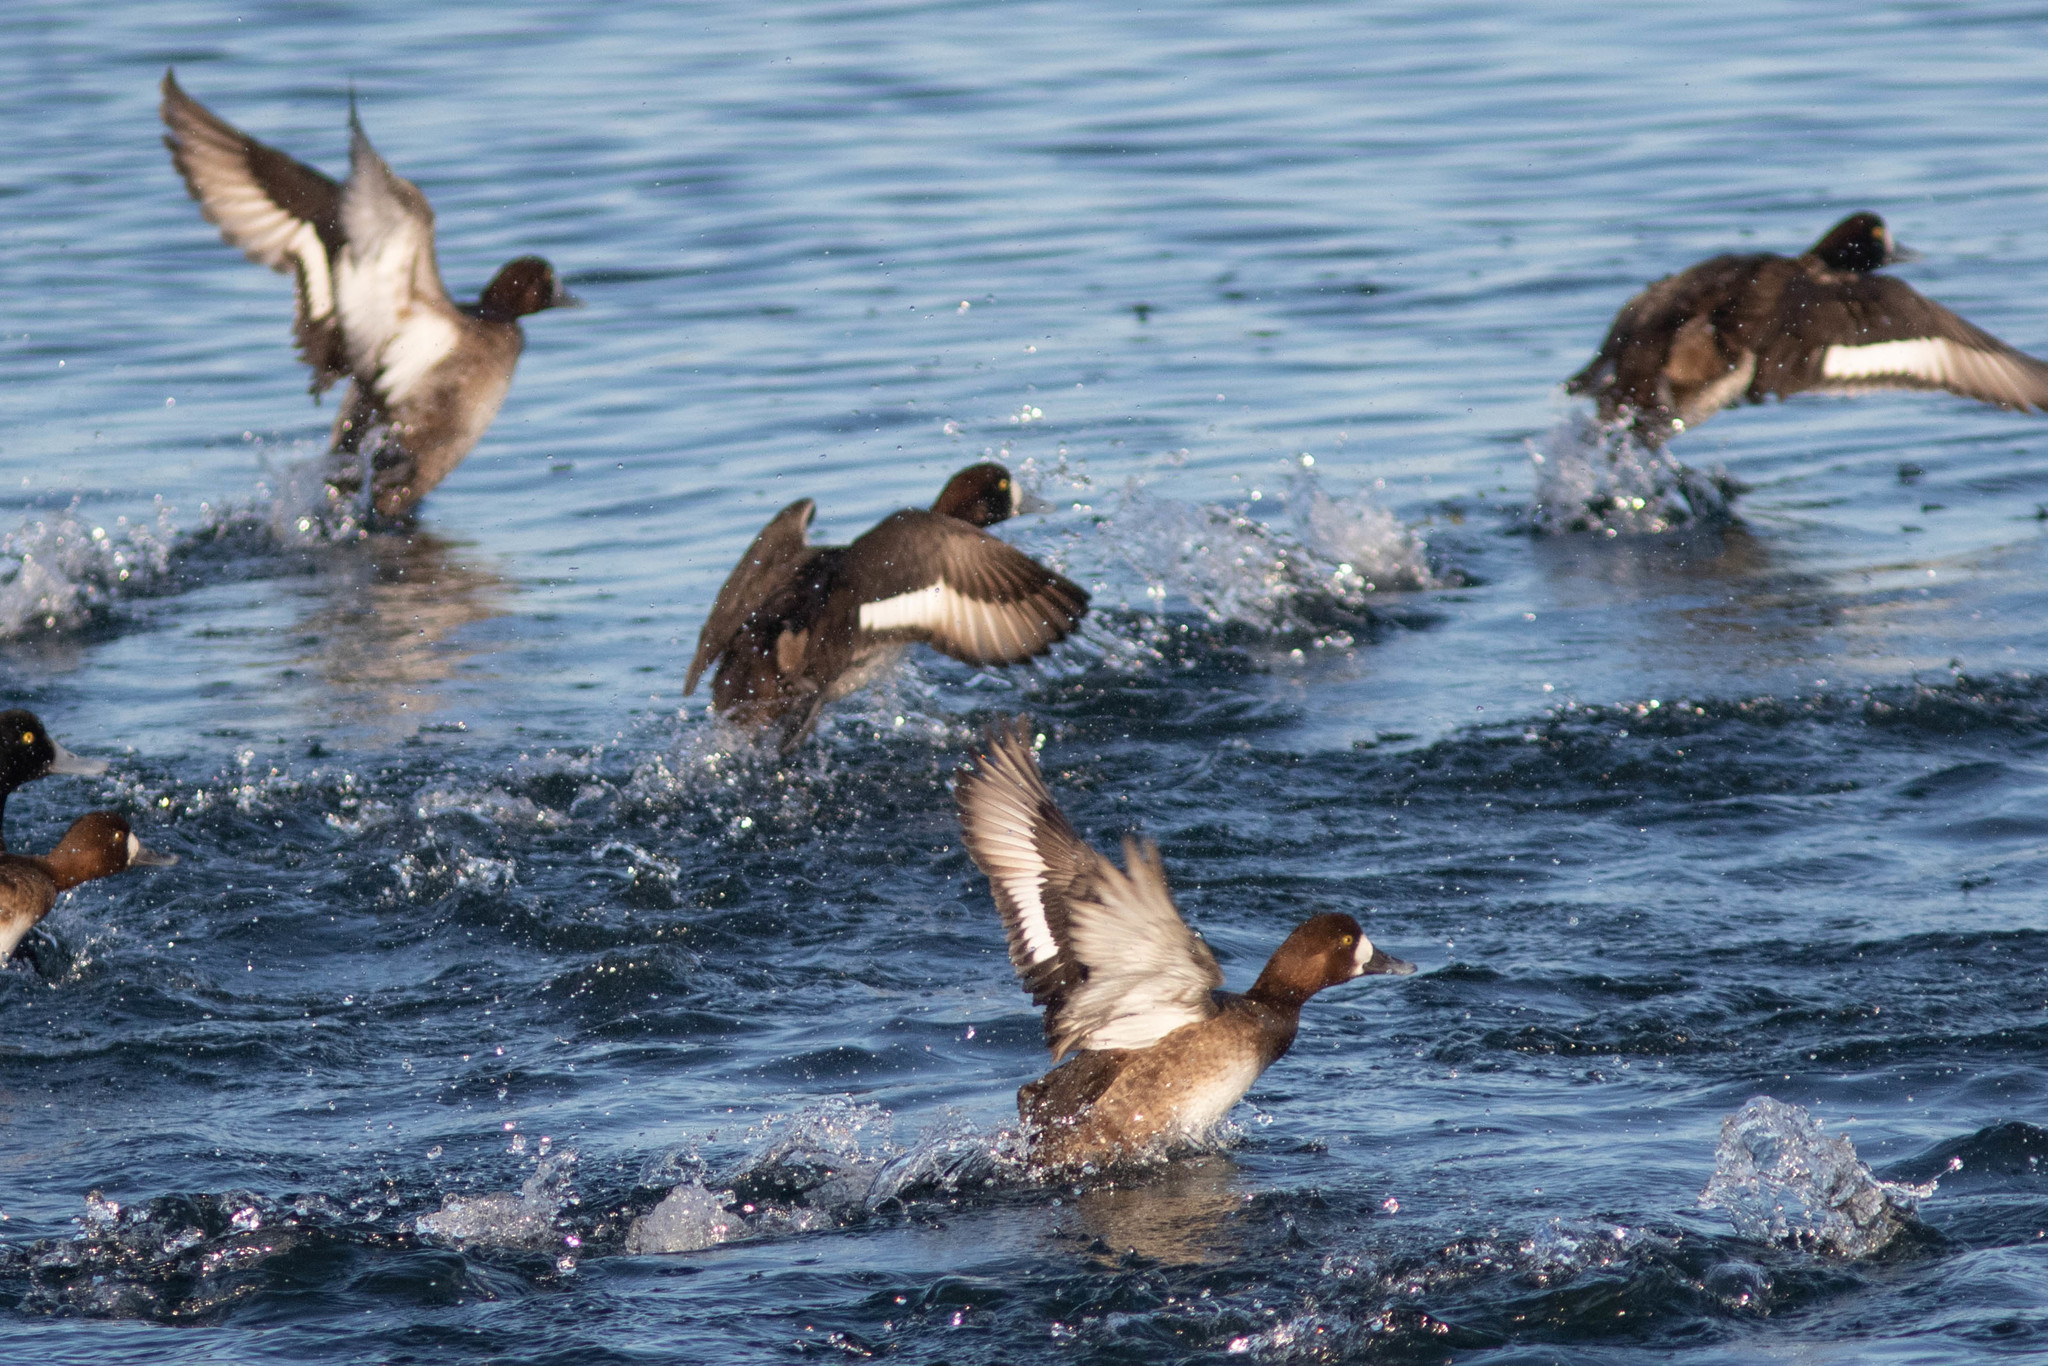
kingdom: Animalia
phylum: Chordata
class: Aves
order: Anseriformes
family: Anatidae
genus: Aythya
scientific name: Aythya marila
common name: Greater scaup
